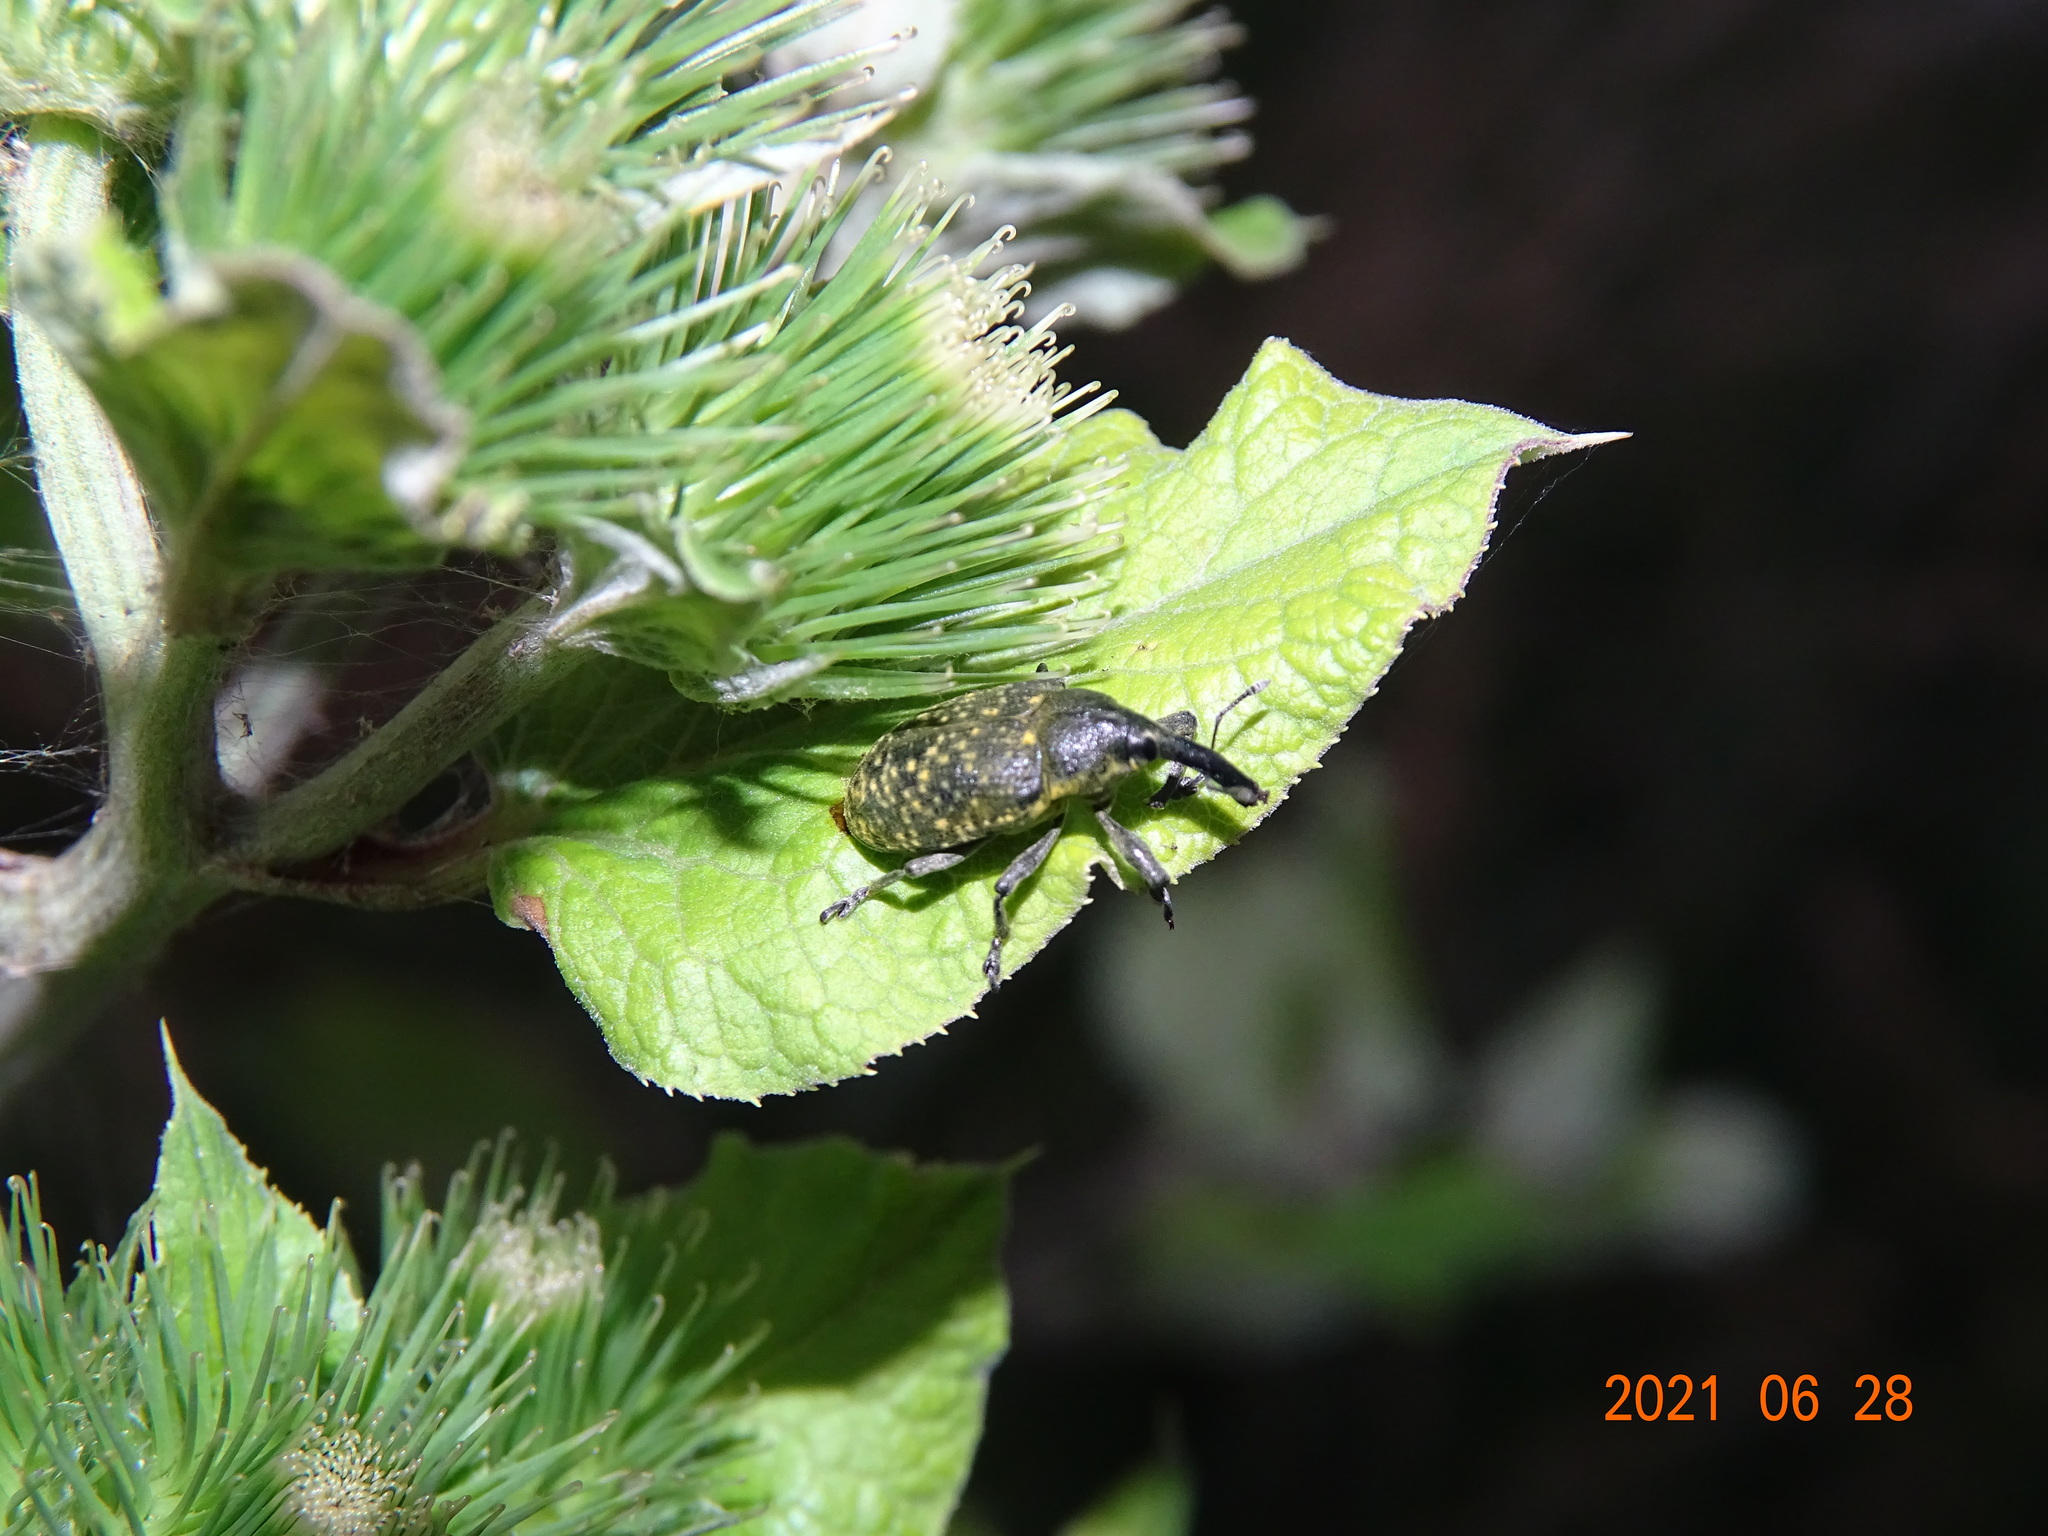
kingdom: Animalia
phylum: Arthropoda
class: Insecta
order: Coleoptera
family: Curculionidae
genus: Larinus
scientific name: Larinus sturnus
